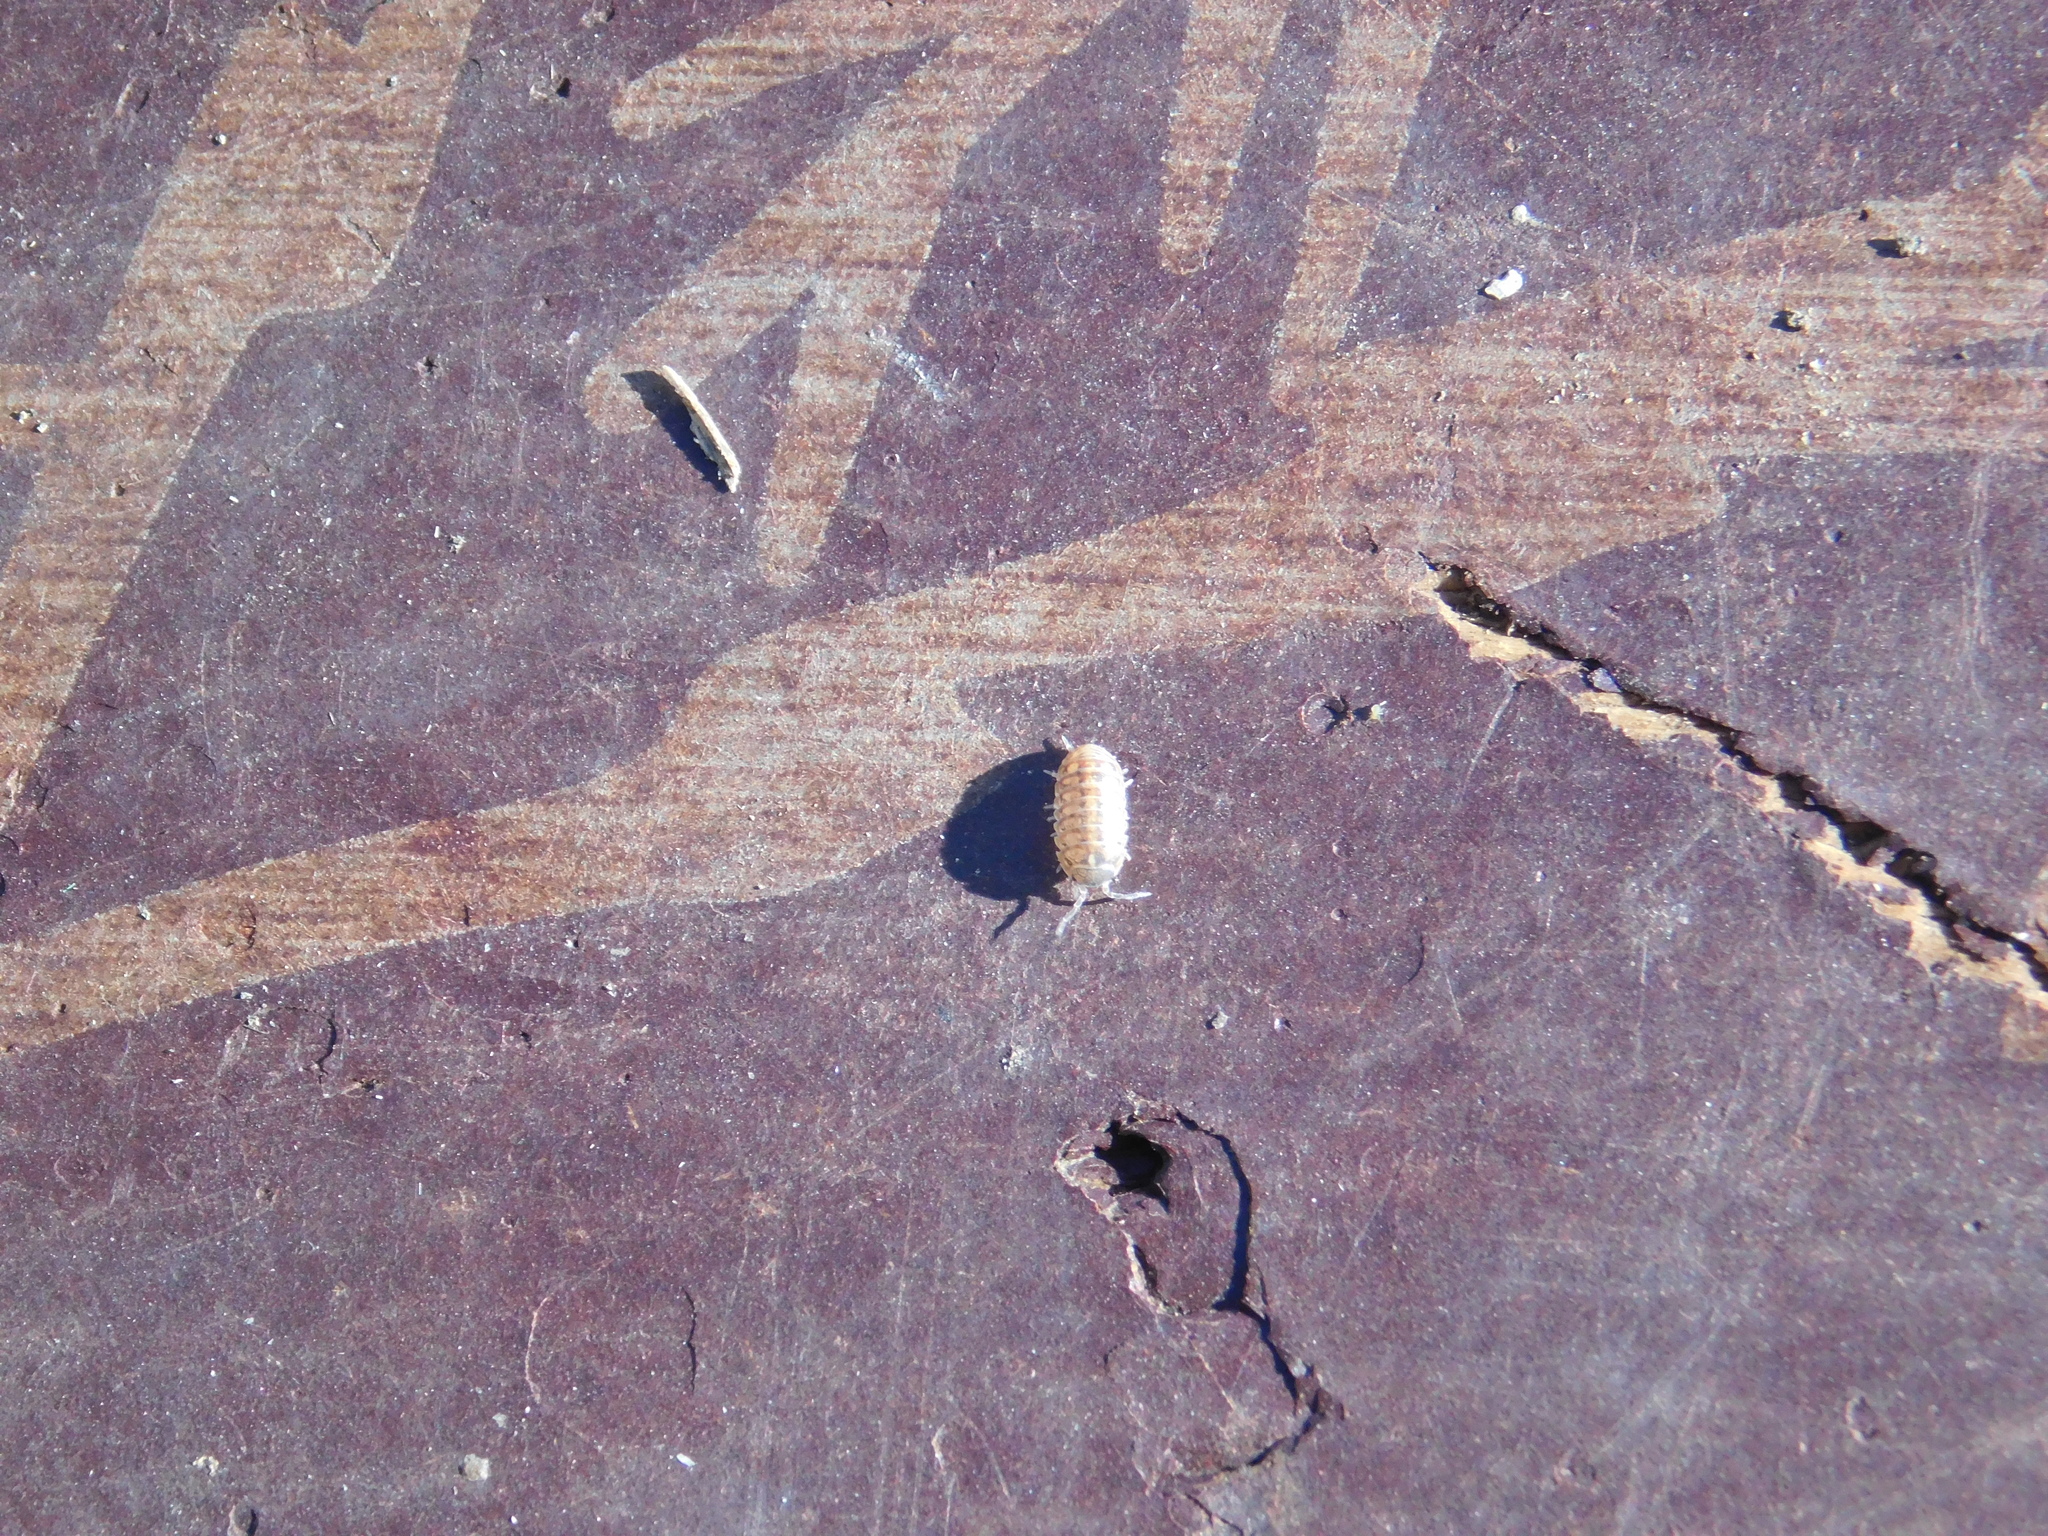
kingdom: Animalia
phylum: Arthropoda
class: Malacostraca
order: Isopoda
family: Armadillidiidae
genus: Armadillidium
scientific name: Armadillidium vulgare
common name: Common pill woodlouse
